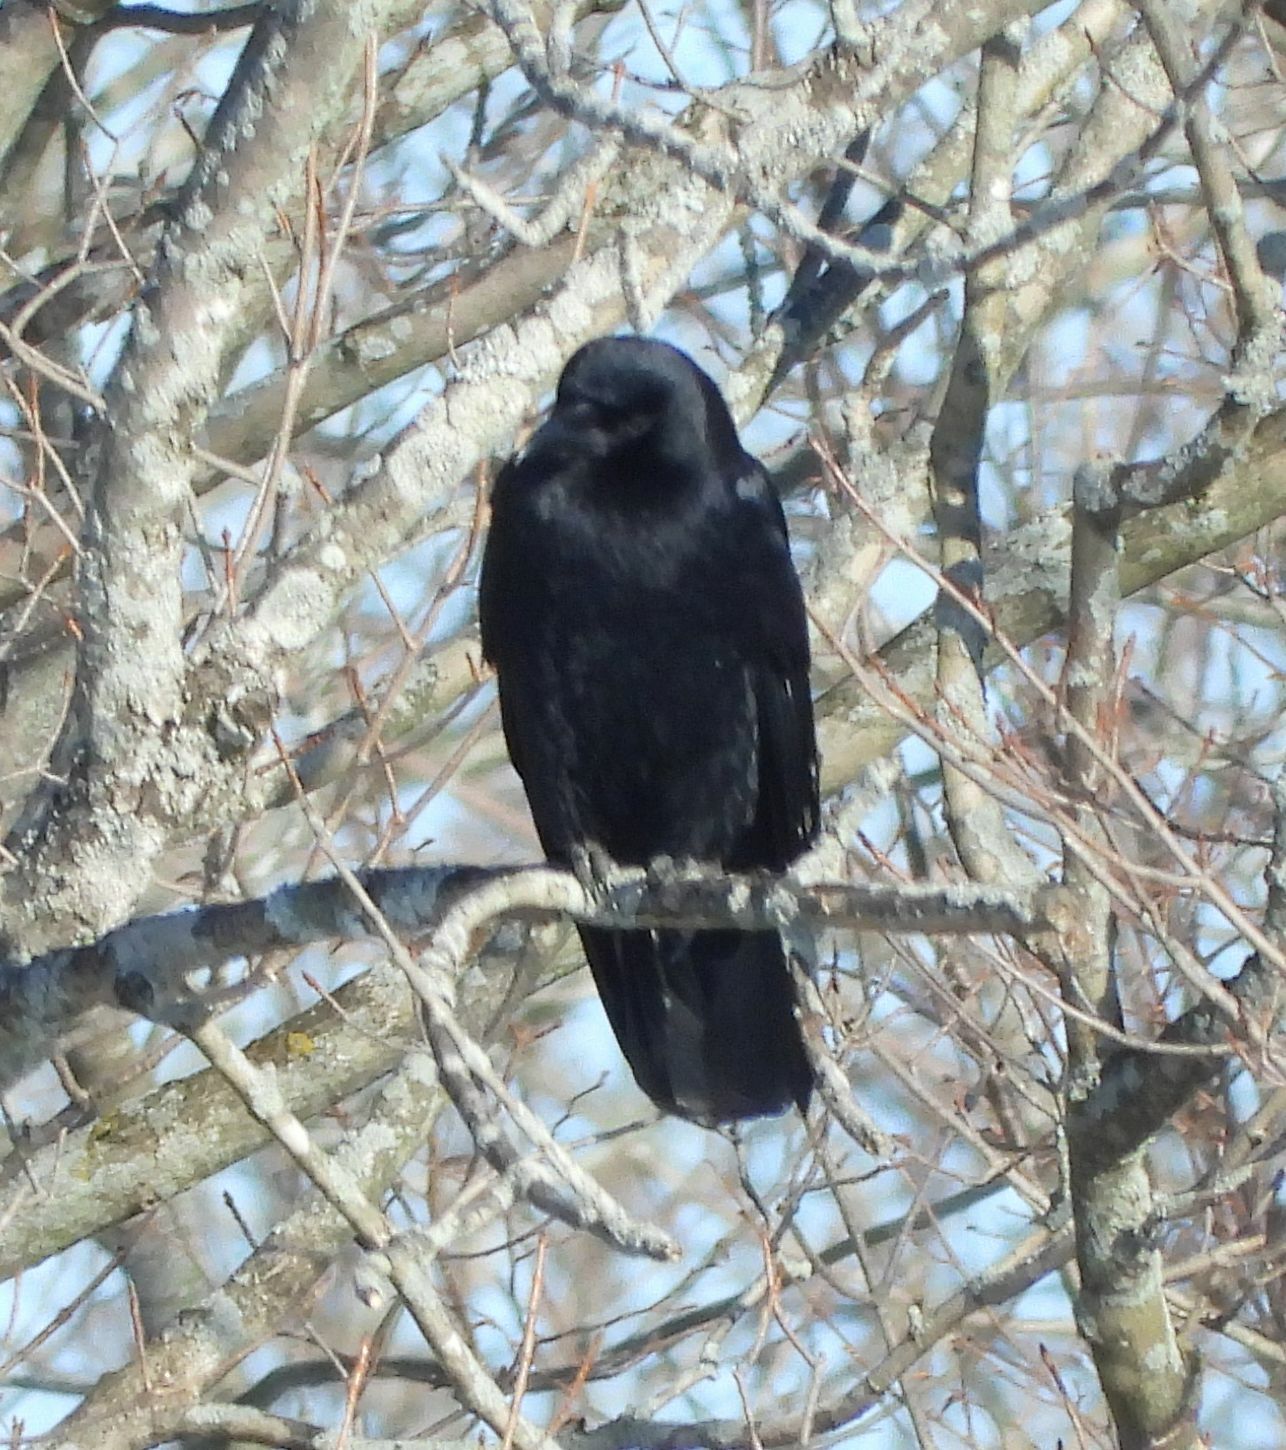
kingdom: Animalia
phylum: Chordata
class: Aves
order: Passeriformes
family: Corvidae
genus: Corvus
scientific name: Corvus brachyrhynchos
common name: American crow
